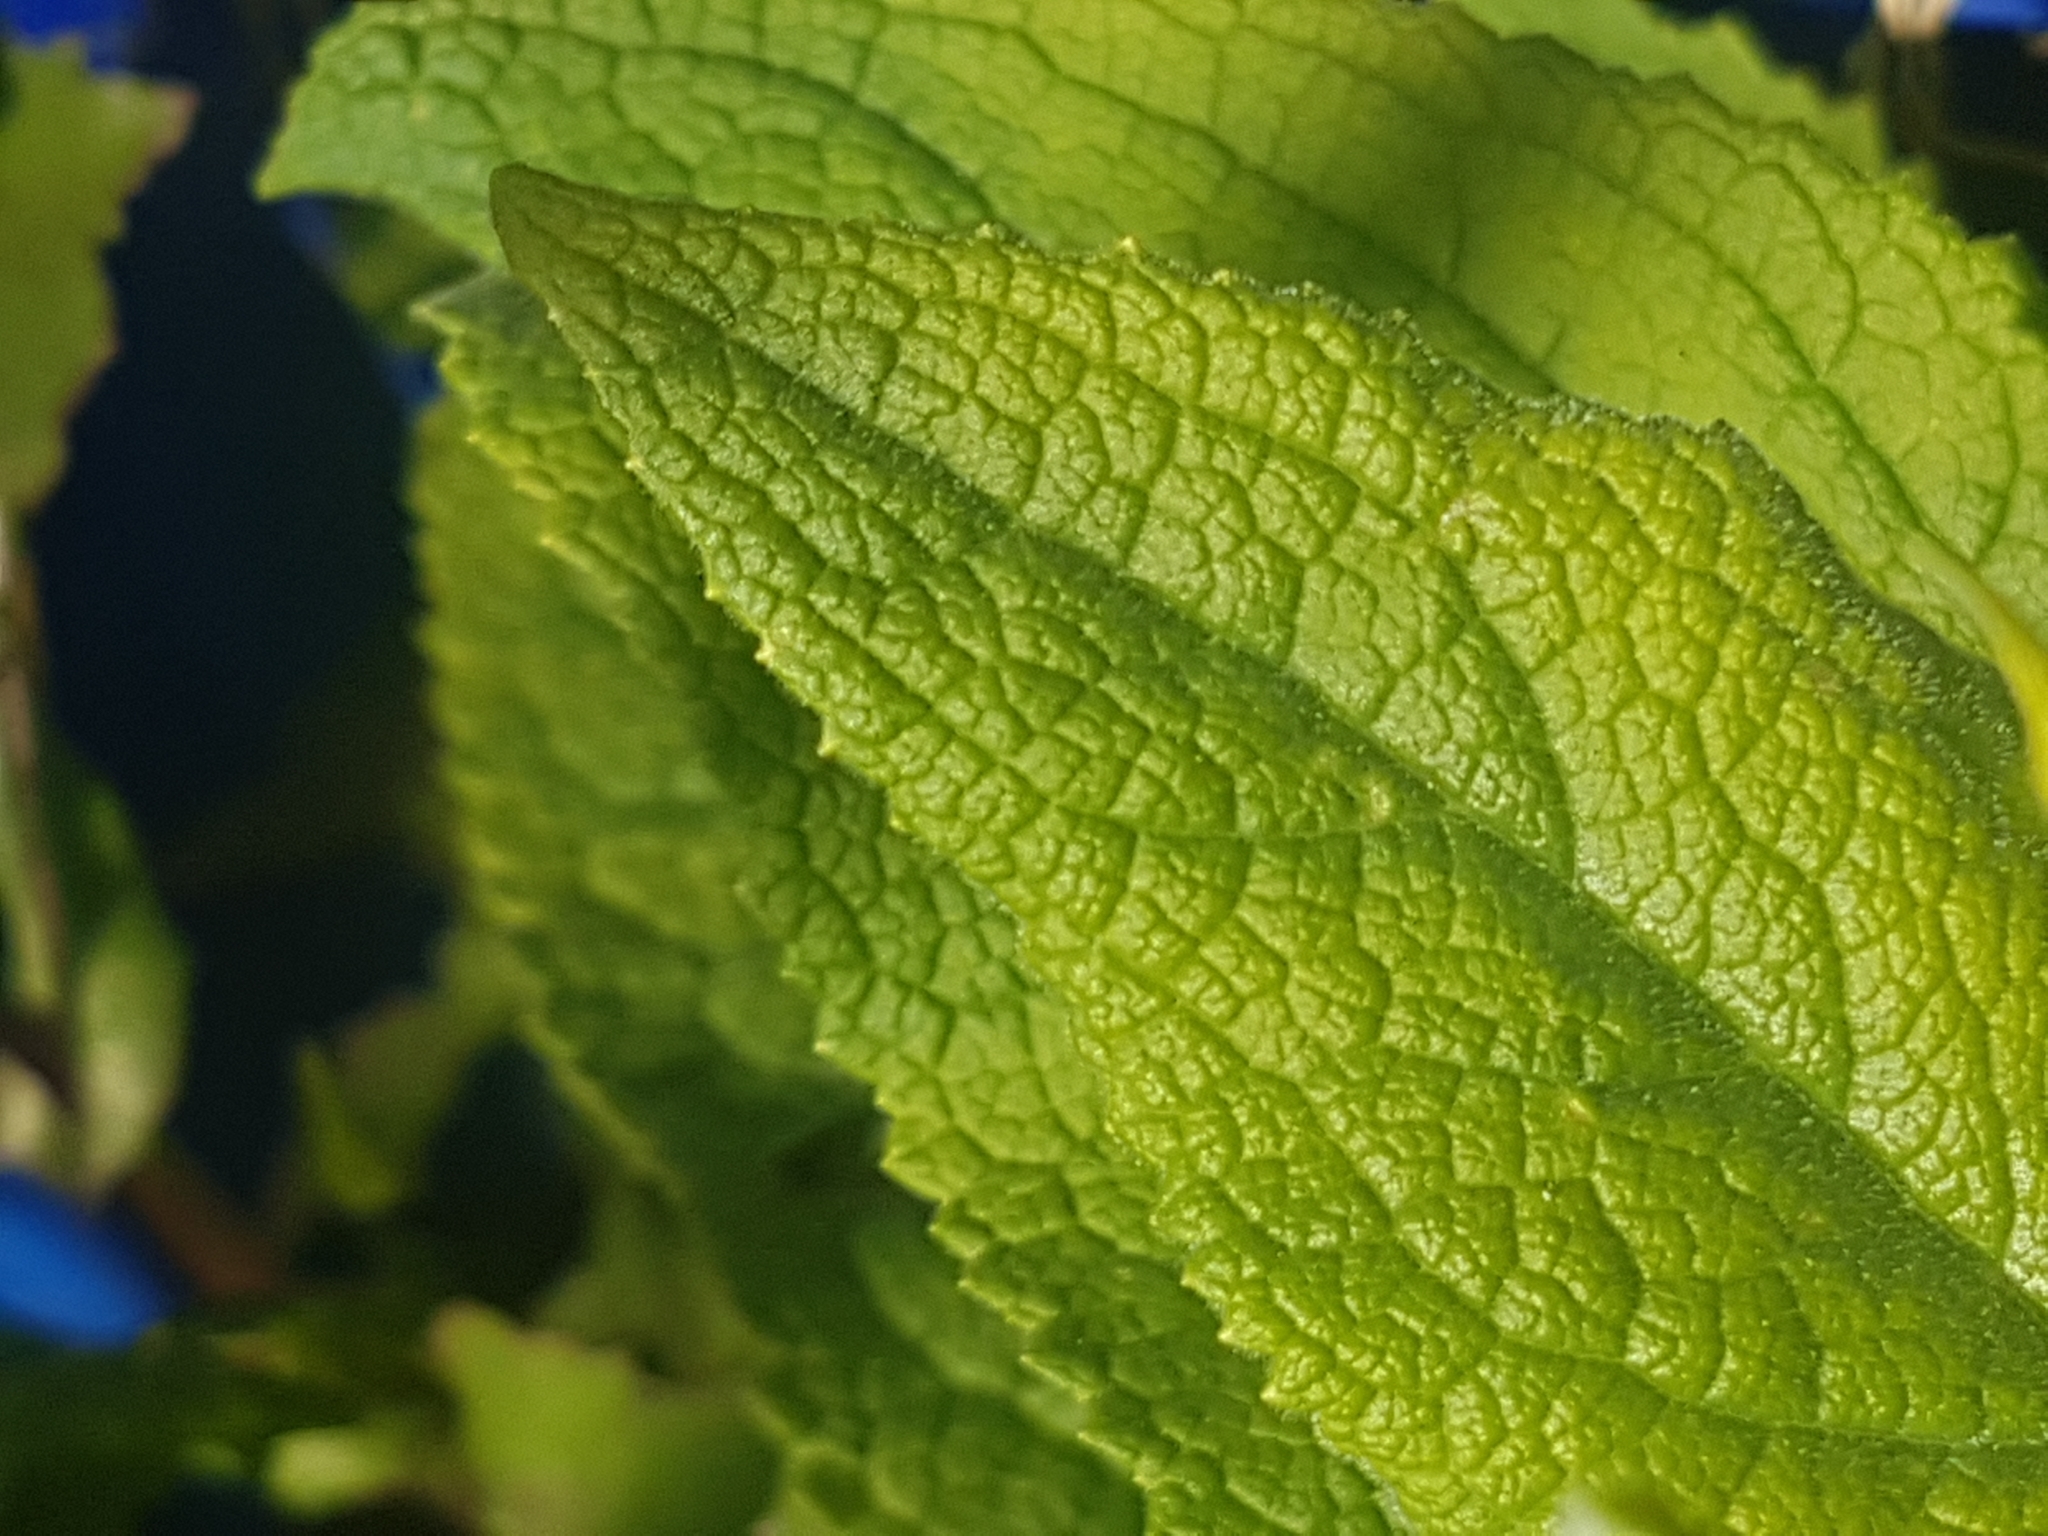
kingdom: Plantae
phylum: Tracheophyta
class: Magnoliopsida
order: Lamiales
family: Plantaginaceae
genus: Digitalis
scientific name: Digitalis purpurea
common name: Foxglove
